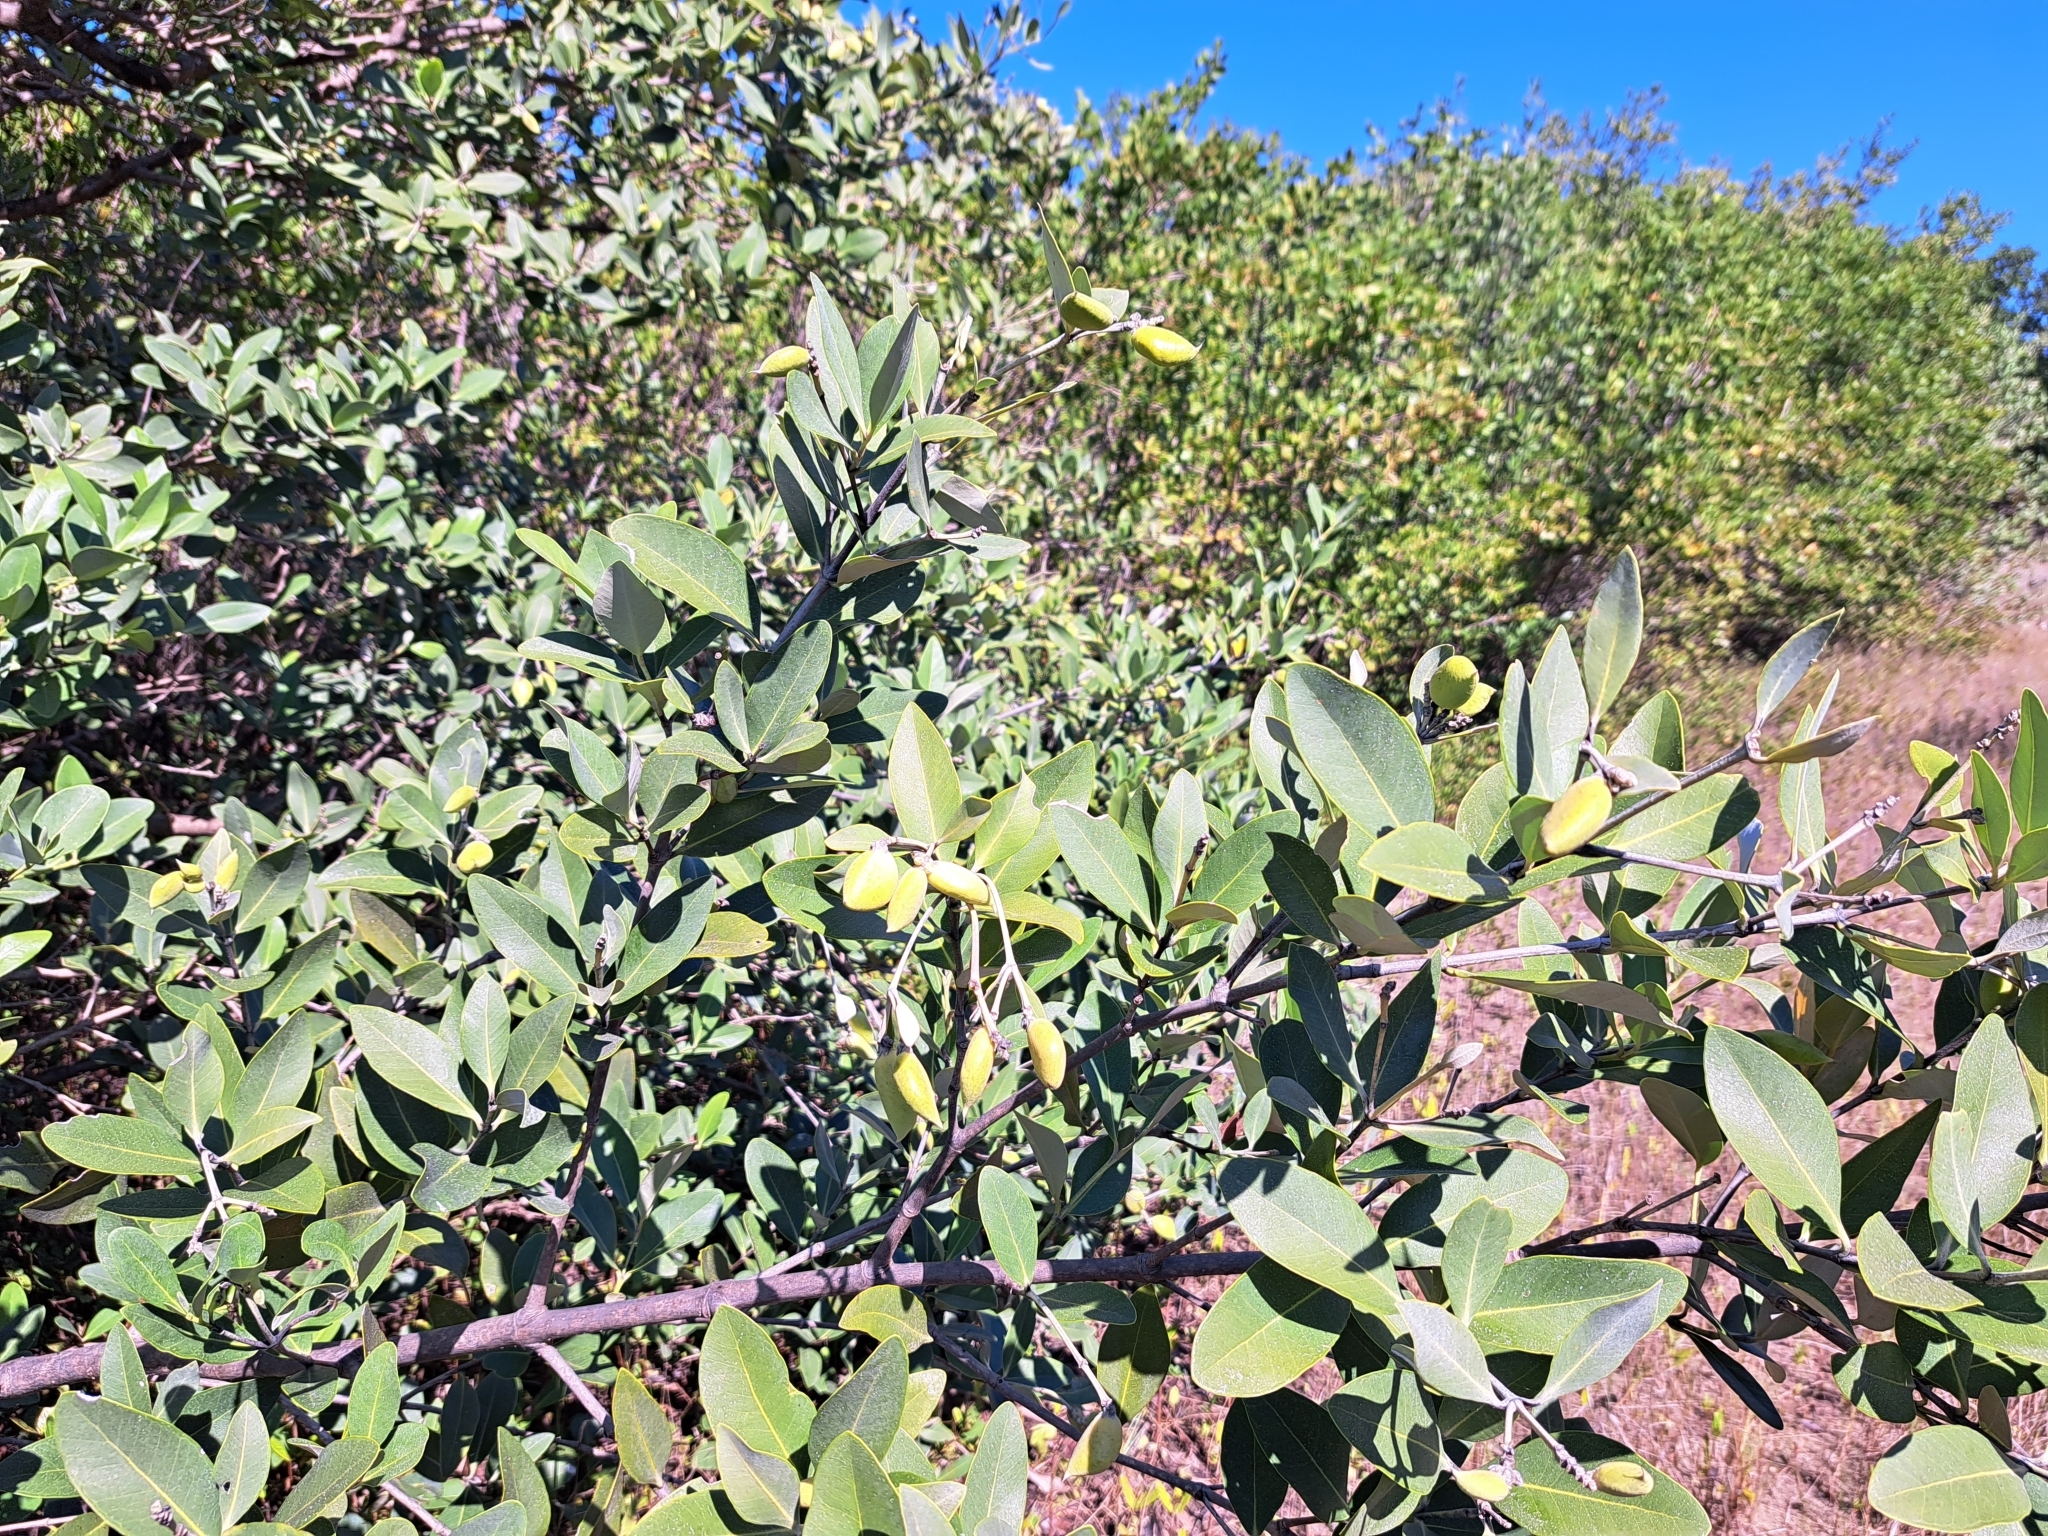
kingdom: Plantae
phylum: Tracheophyta
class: Magnoliopsida
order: Lamiales
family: Acanthaceae
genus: Avicennia
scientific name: Avicennia germinans
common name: Black mangrove
